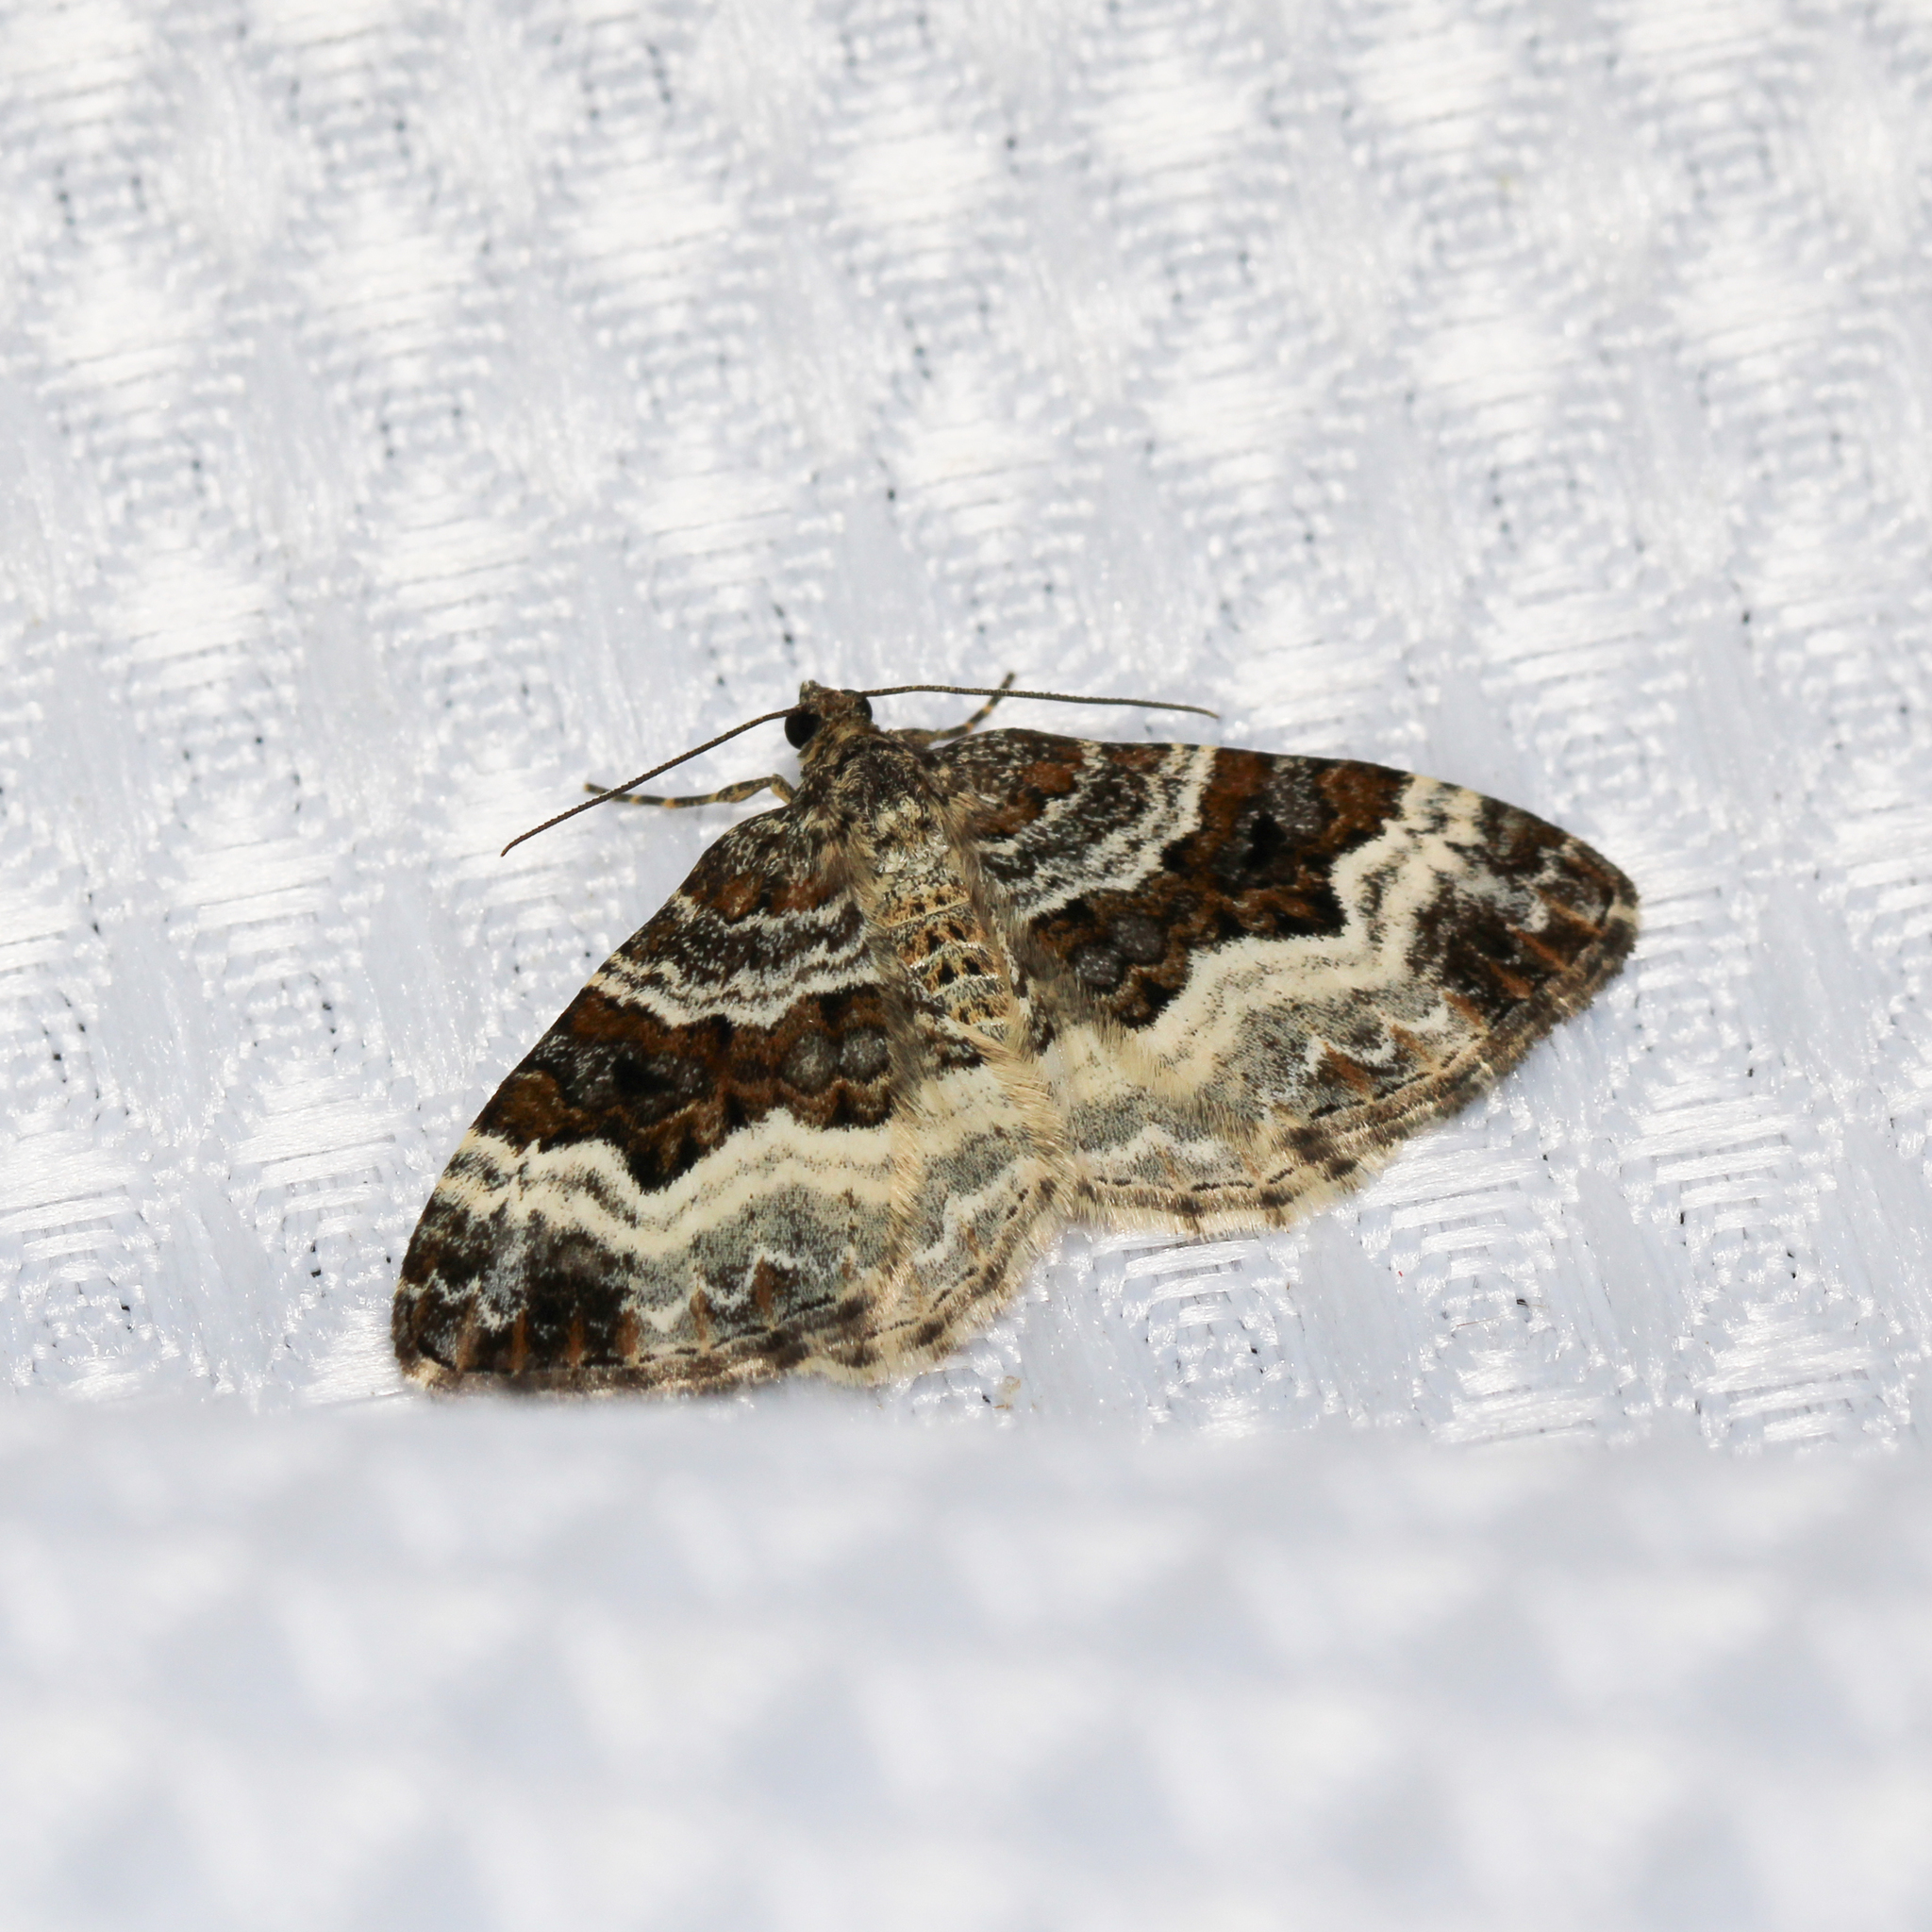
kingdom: Animalia
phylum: Arthropoda
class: Insecta
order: Lepidoptera
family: Geometridae
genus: Epirrhoe
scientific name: Epirrhoe alternata
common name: Common carpet
